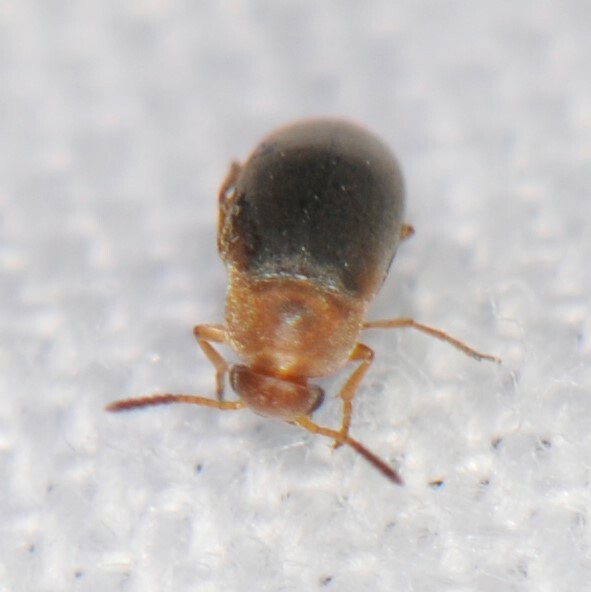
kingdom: Animalia
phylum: Arthropoda
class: Insecta
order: Coleoptera
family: Scraptiidae
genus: Pentaria
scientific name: Pentaria dispar
